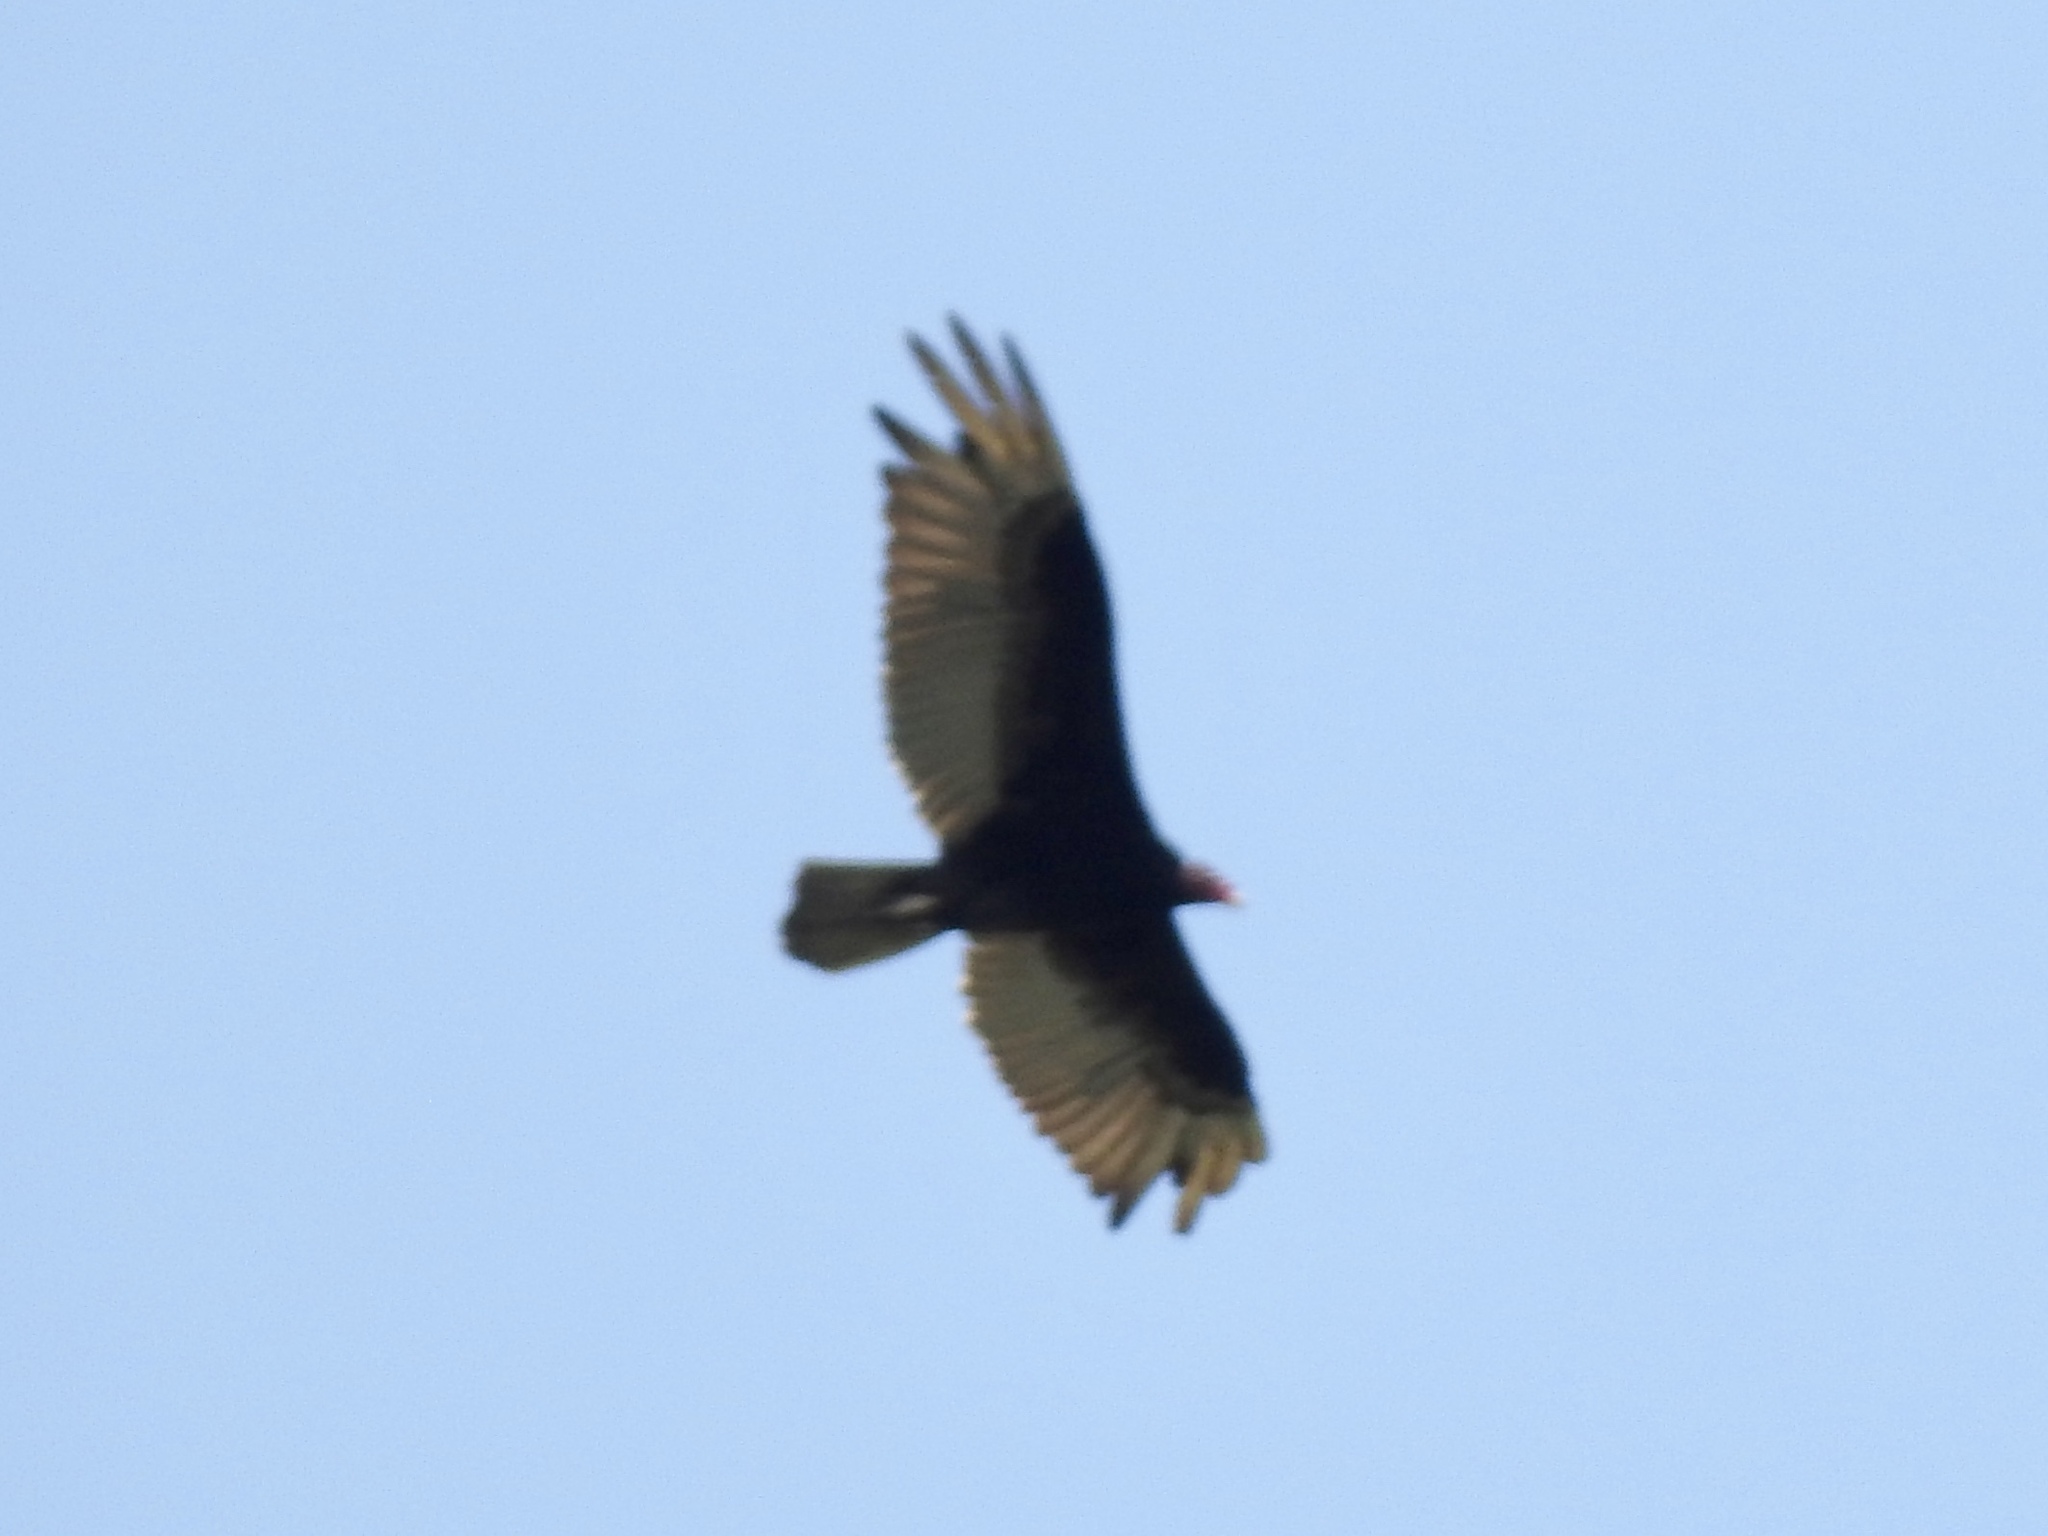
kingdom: Animalia
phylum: Chordata
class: Aves
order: Accipitriformes
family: Cathartidae
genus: Cathartes
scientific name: Cathartes aura
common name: Turkey vulture
